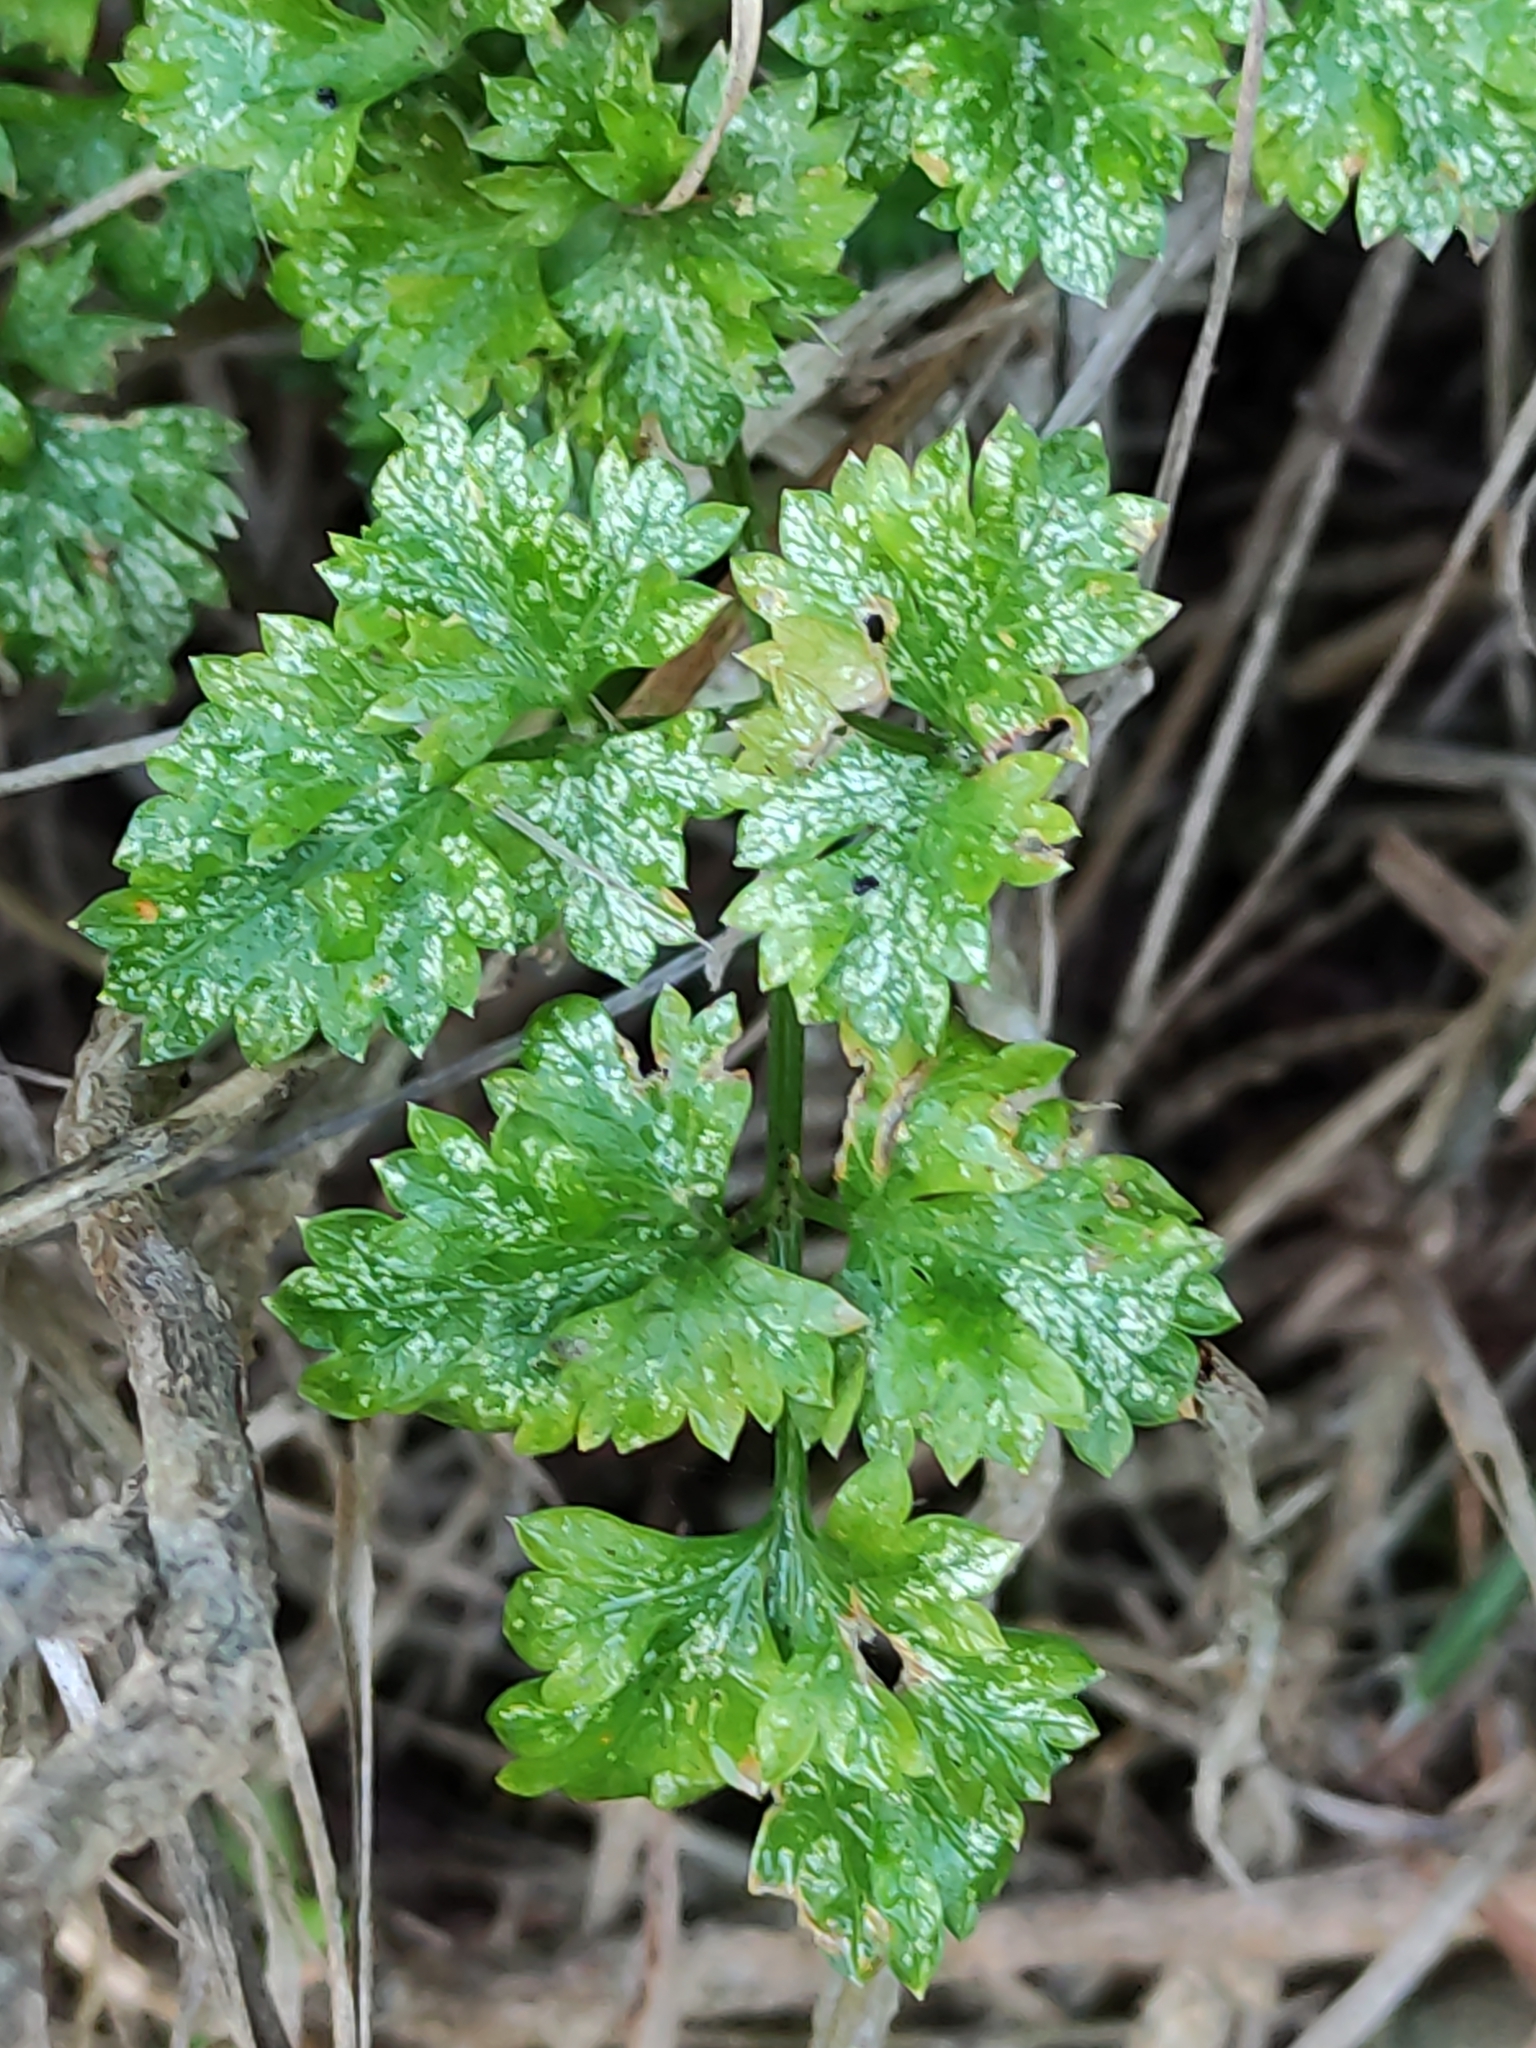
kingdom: Plantae
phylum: Tracheophyta
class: Magnoliopsida
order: Apiales
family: Apiaceae
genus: Petroselinum
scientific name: Petroselinum crispum
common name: Parsley
